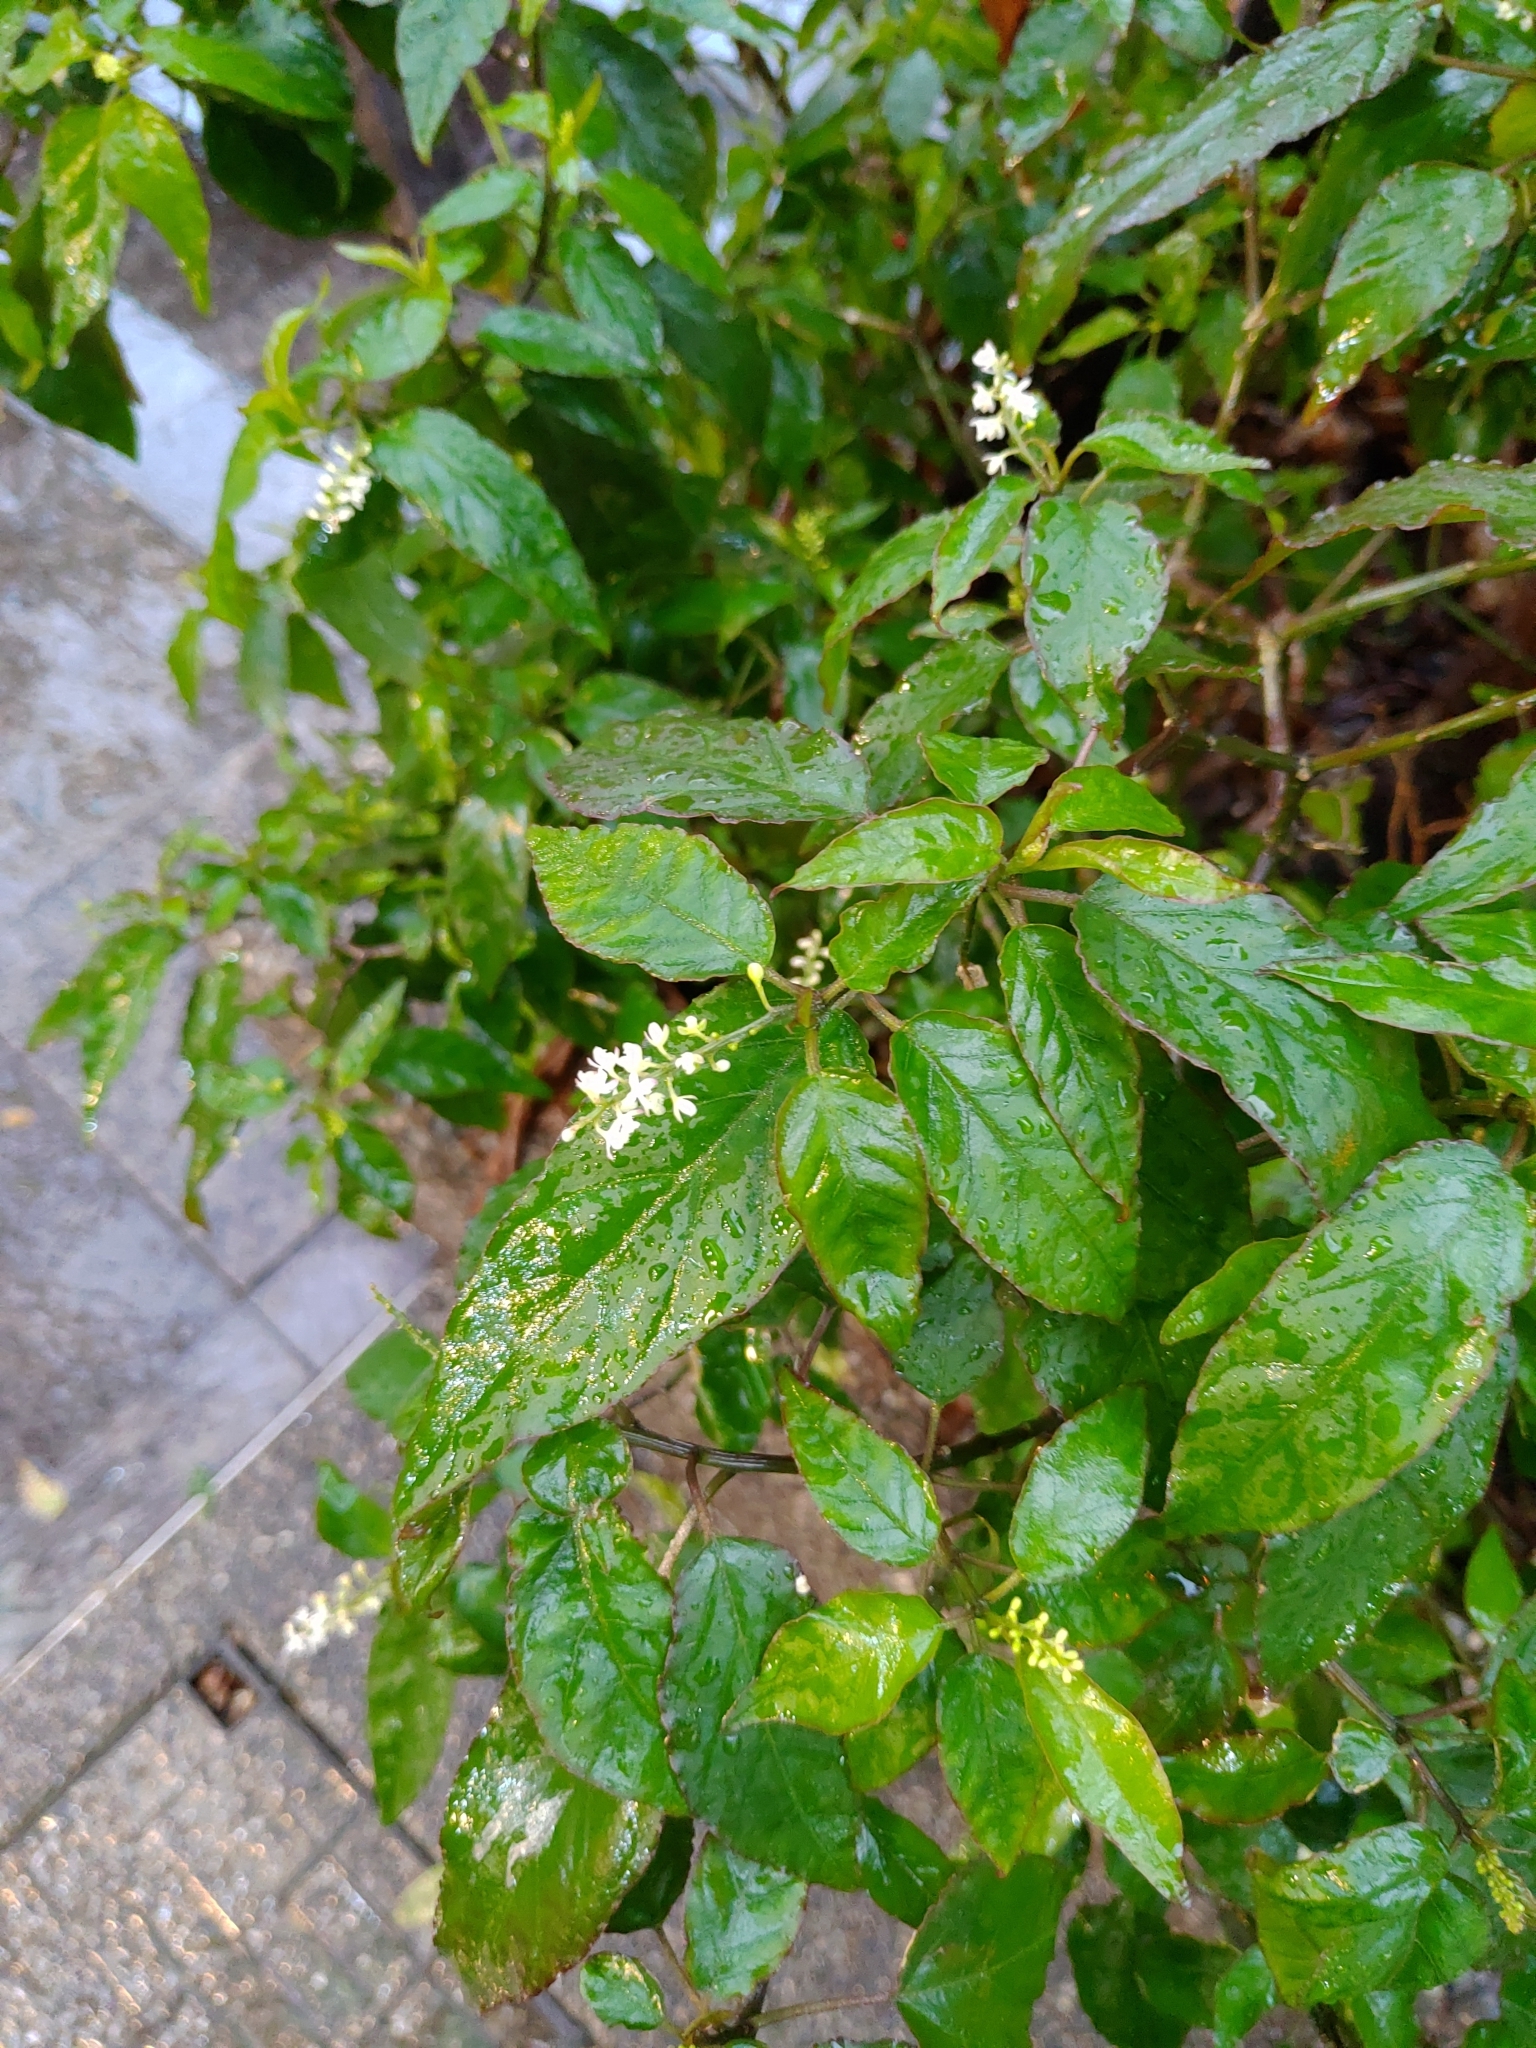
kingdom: Plantae
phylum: Tracheophyta
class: Magnoliopsida
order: Caryophyllales
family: Phytolaccaceae
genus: Rivina
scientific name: Rivina humilis
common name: Rougeplant
